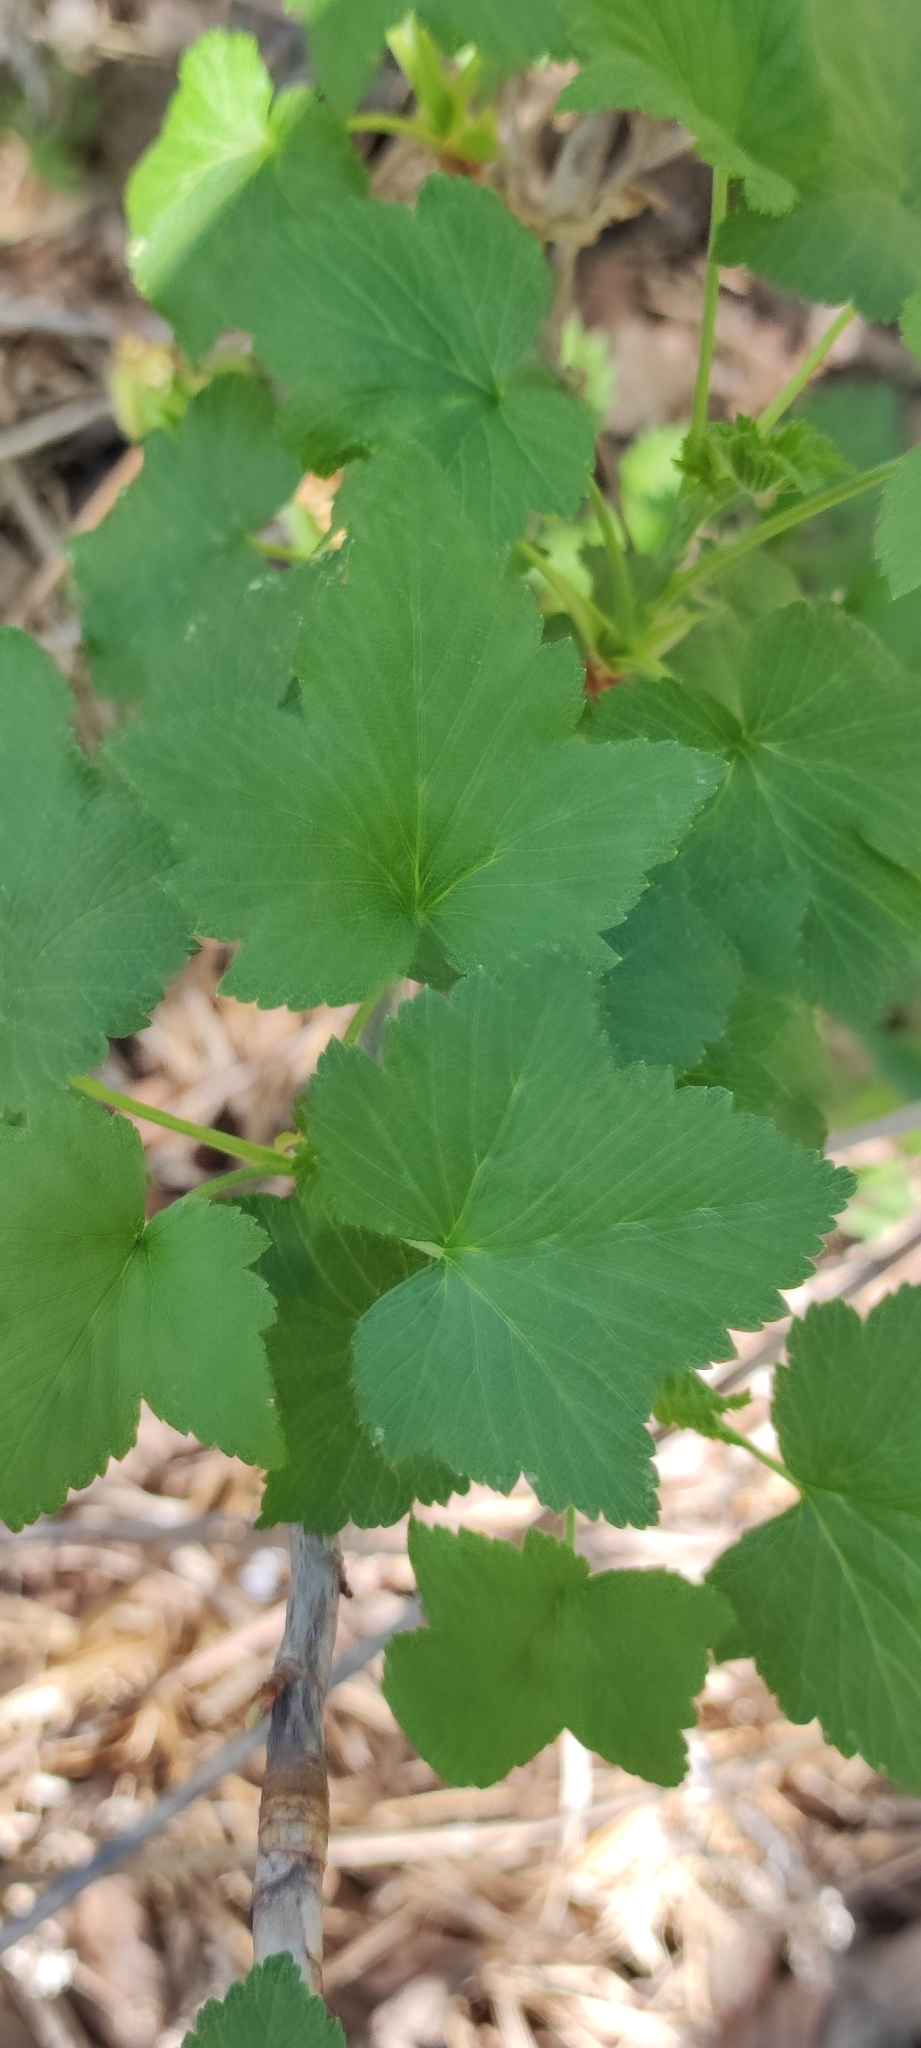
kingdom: Plantae
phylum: Tracheophyta
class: Magnoliopsida
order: Saxifragales
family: Grossulariaceae
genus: Ribes
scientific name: Ribes nigrum
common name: Black currant
